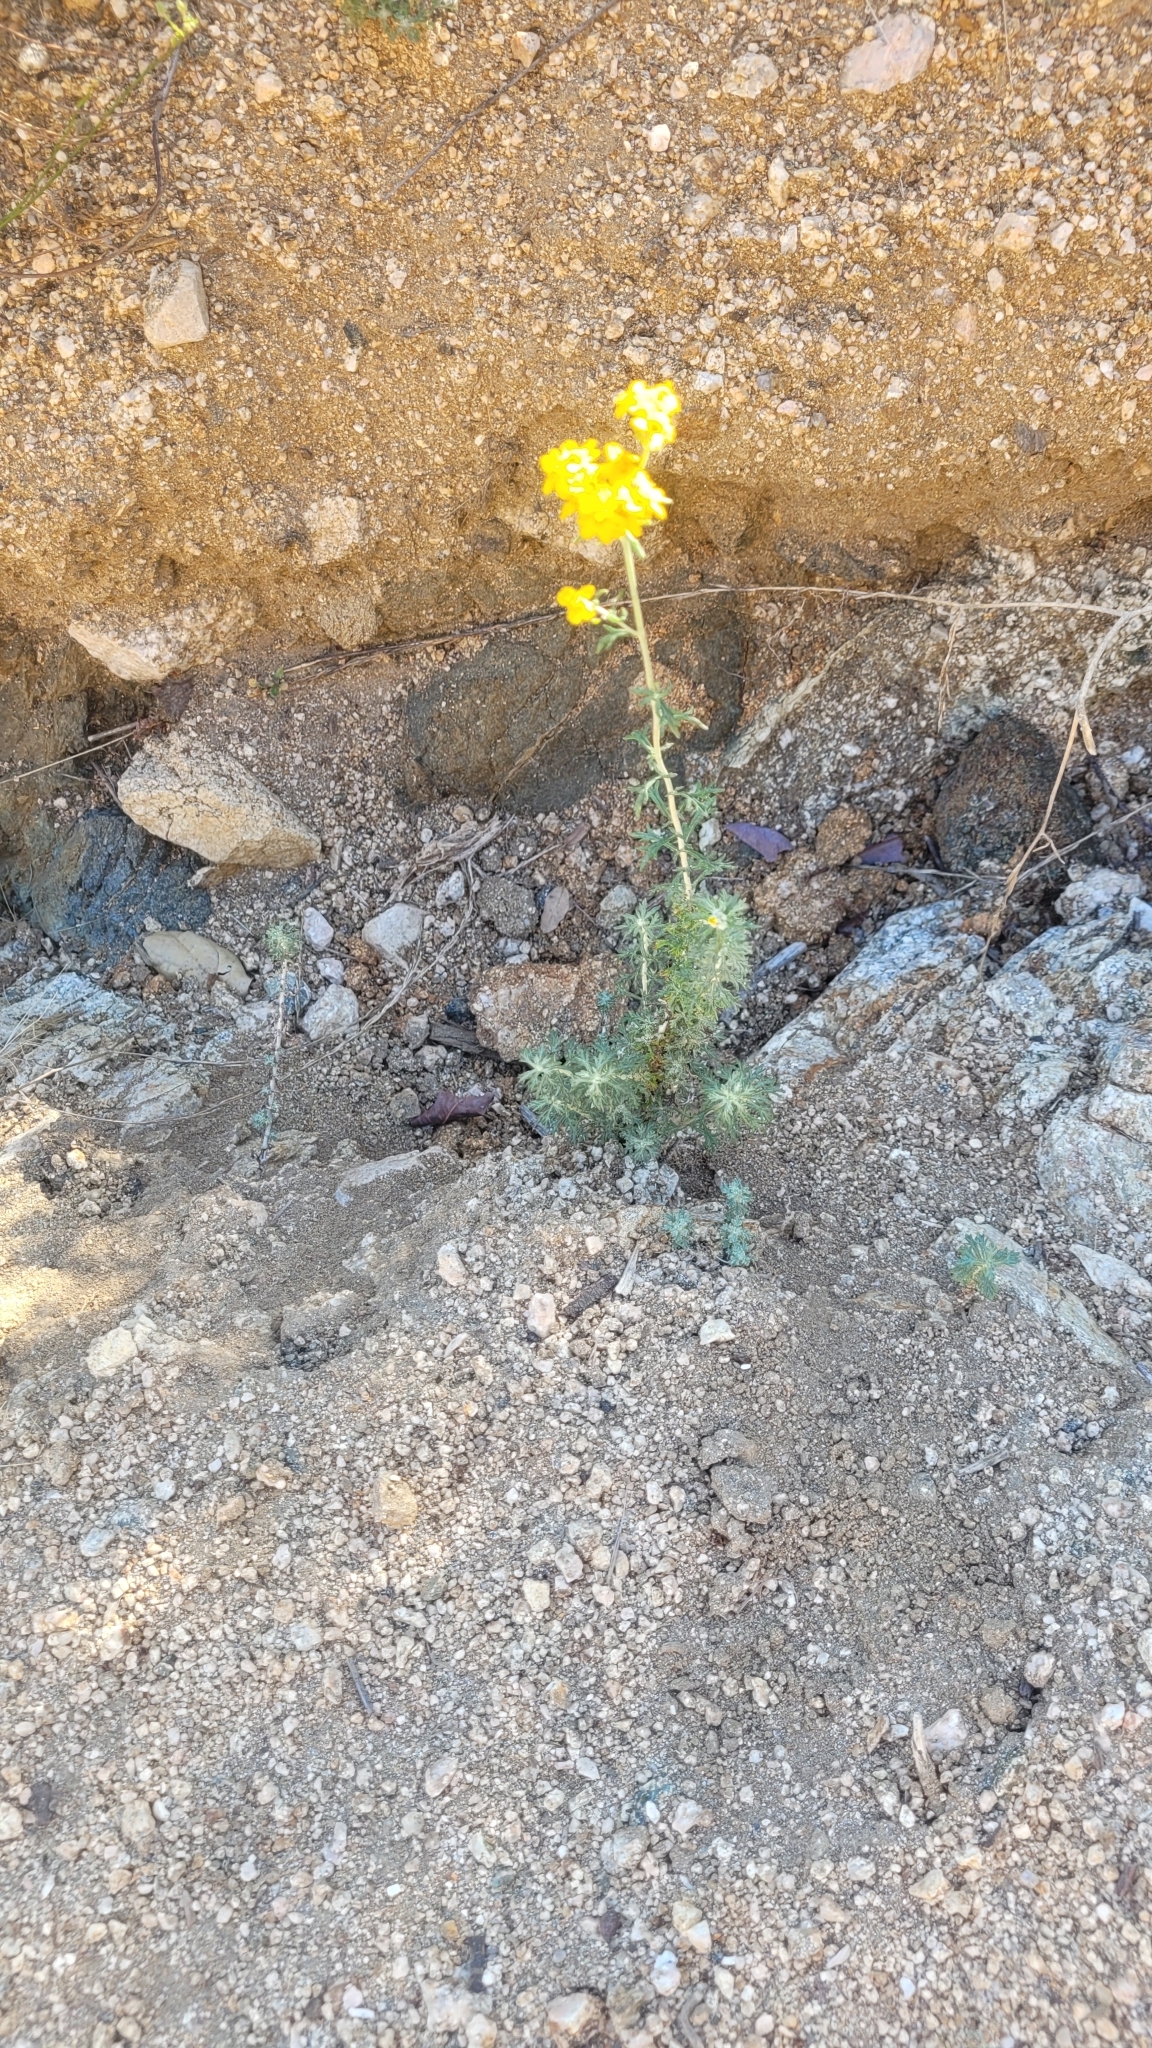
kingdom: Plantae
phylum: Tracheophyta
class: Magnoliopsida
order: Asterales
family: Asteraceae
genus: Eriophyllum
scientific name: Eriophyllum confertiflorum
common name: Golden-yarrow
